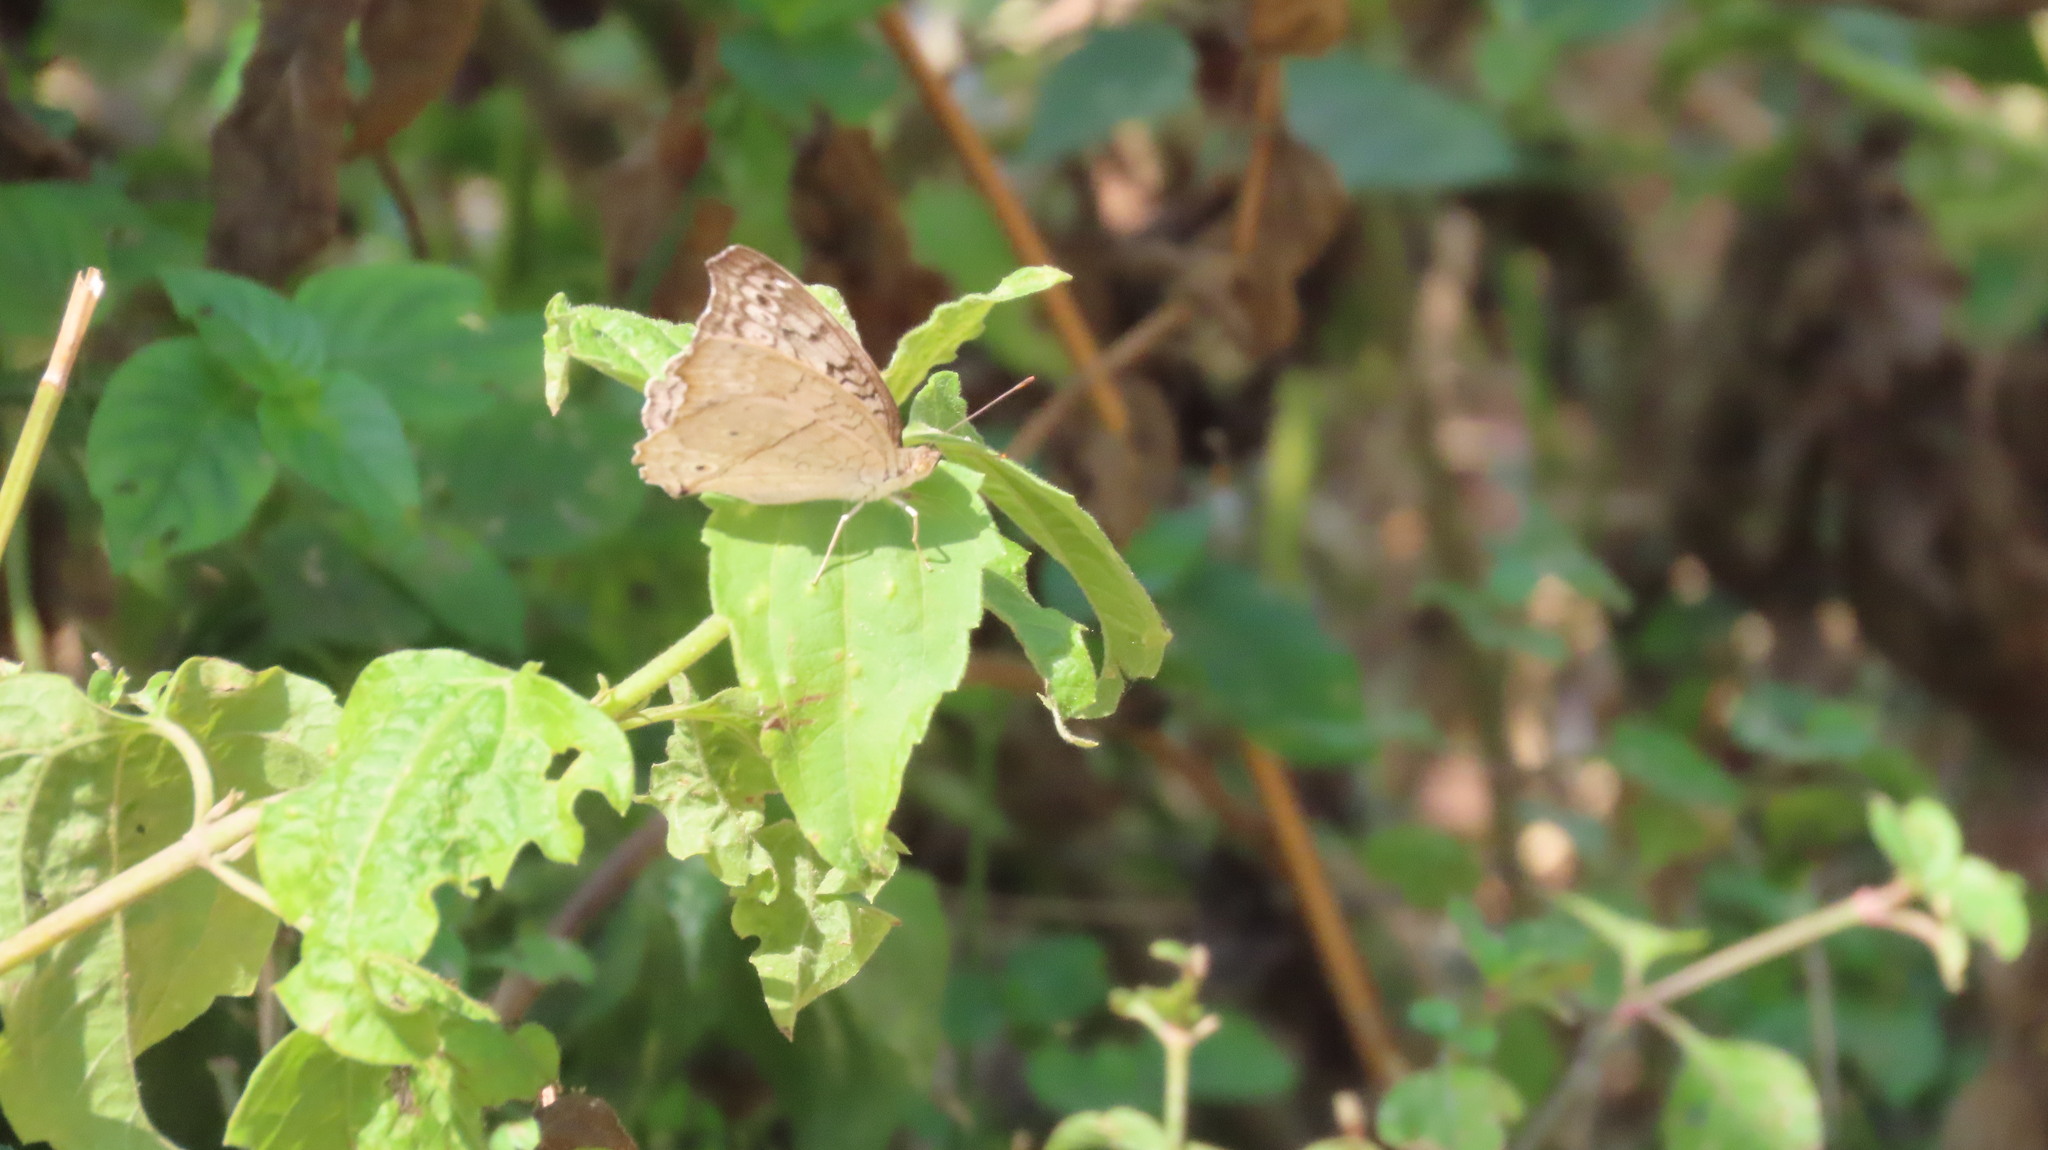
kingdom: Animalia
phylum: Arthropoda
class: Insecta
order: Lepidoptera
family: Nymphalidae
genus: Junonia
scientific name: Junonia atlites
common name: Grey pansy
